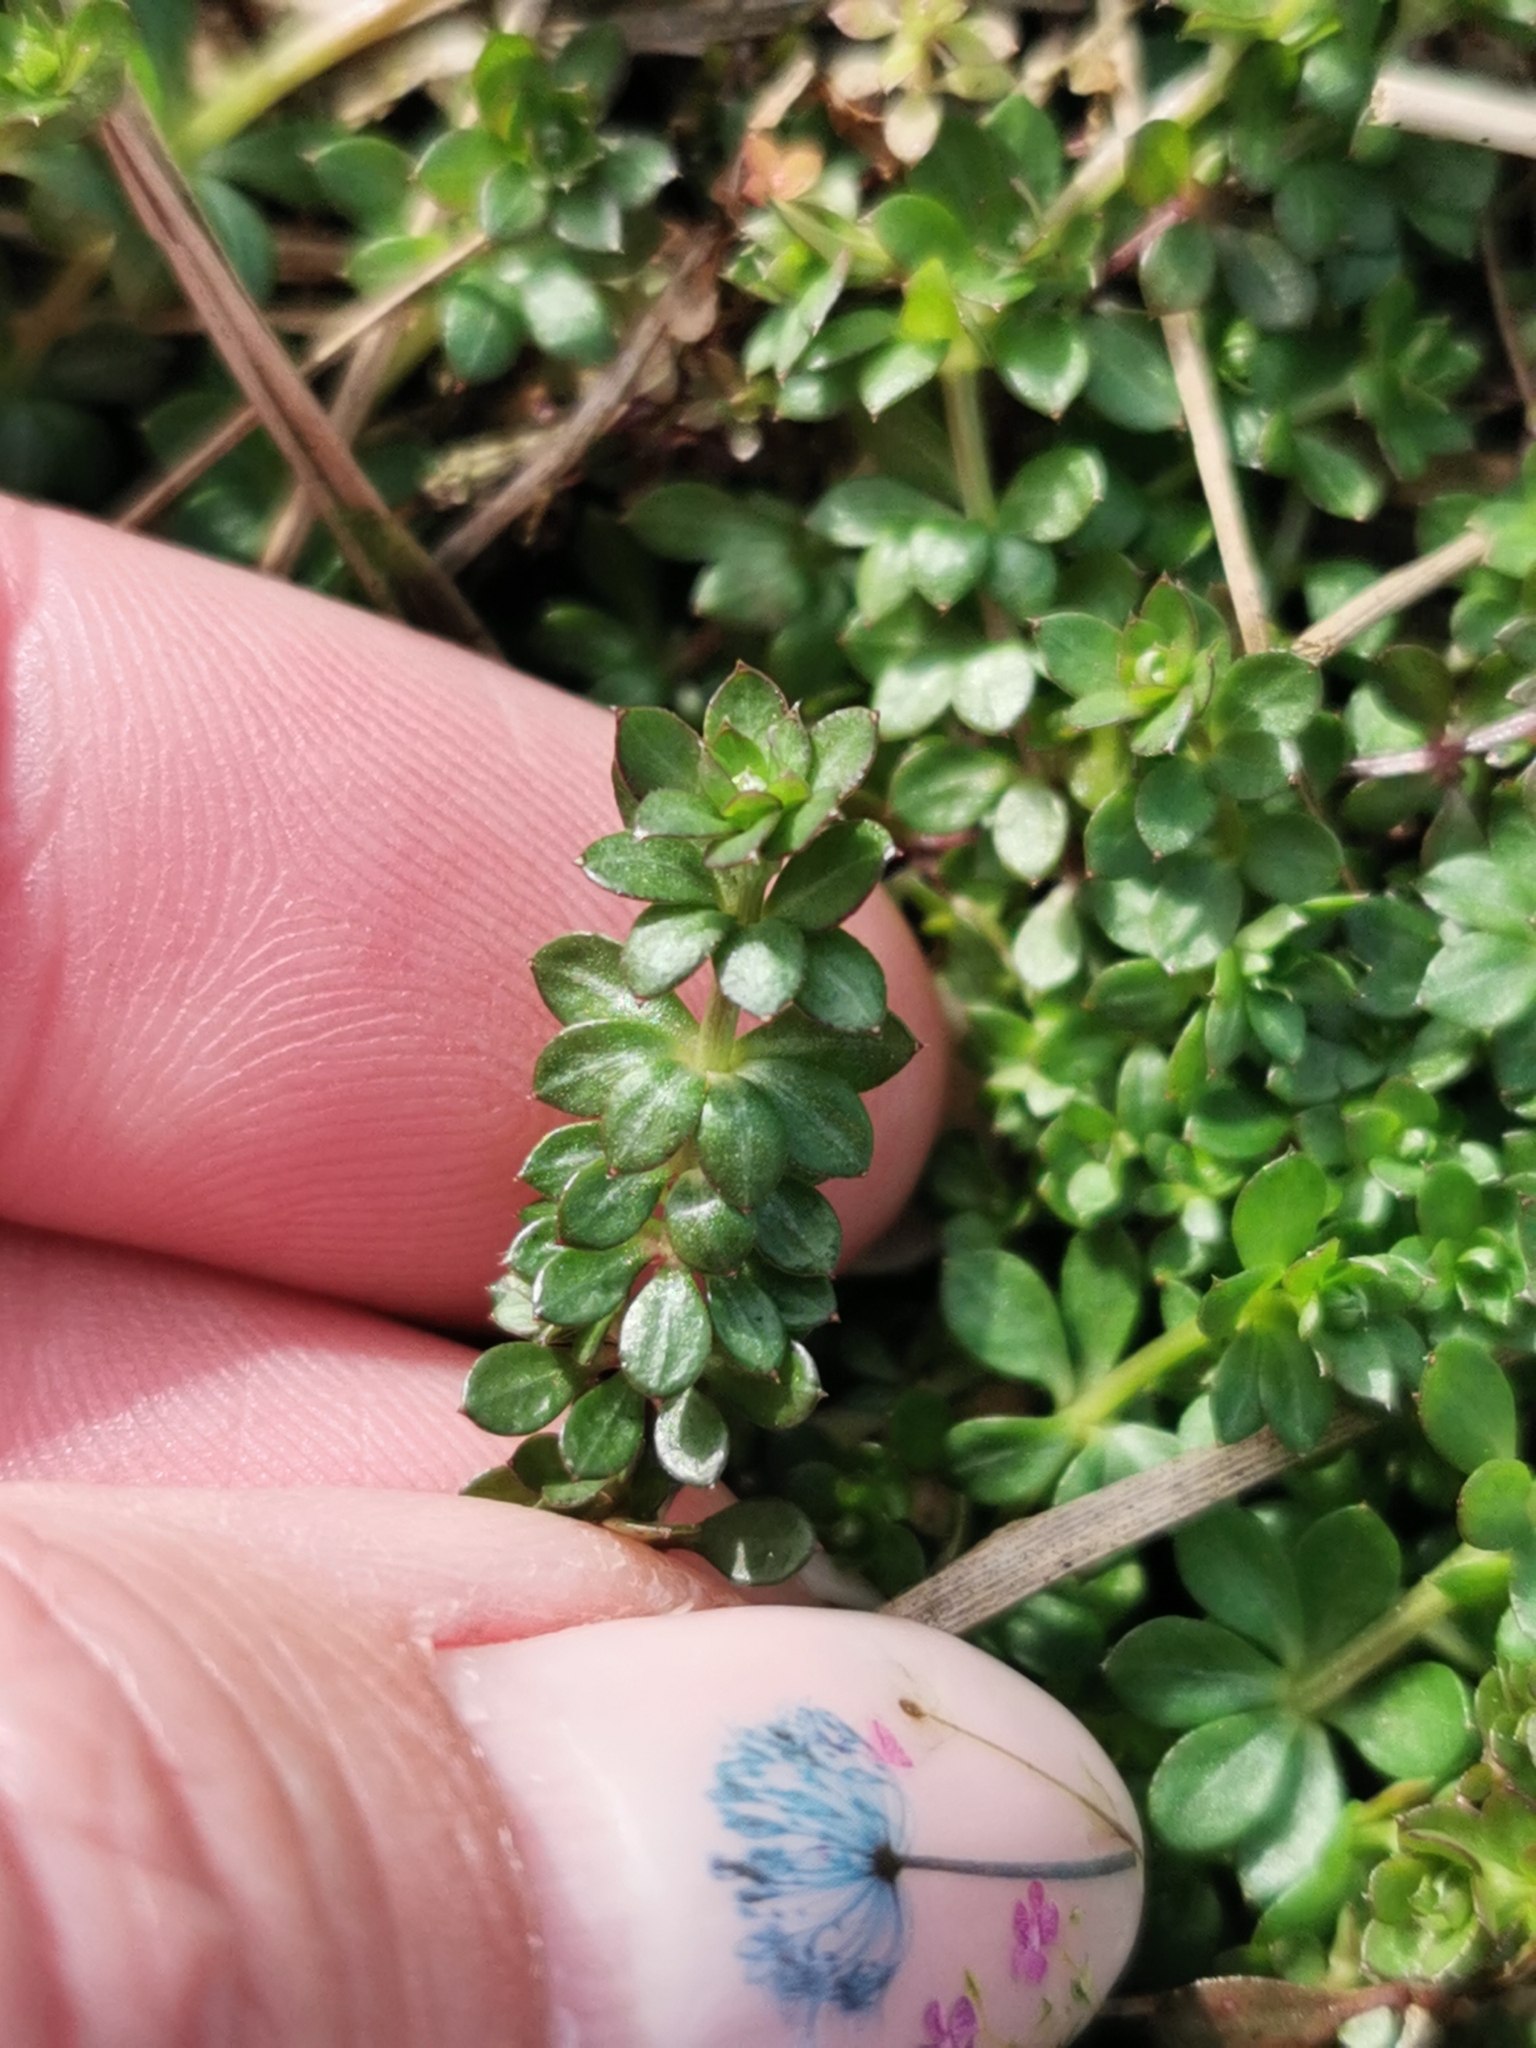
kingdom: Plantae
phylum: Tracheophyta
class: Magnoliopsida
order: Gentianales
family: Rubiaceae
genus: Galium
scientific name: Galium saxatile
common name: Heath bedstraw
